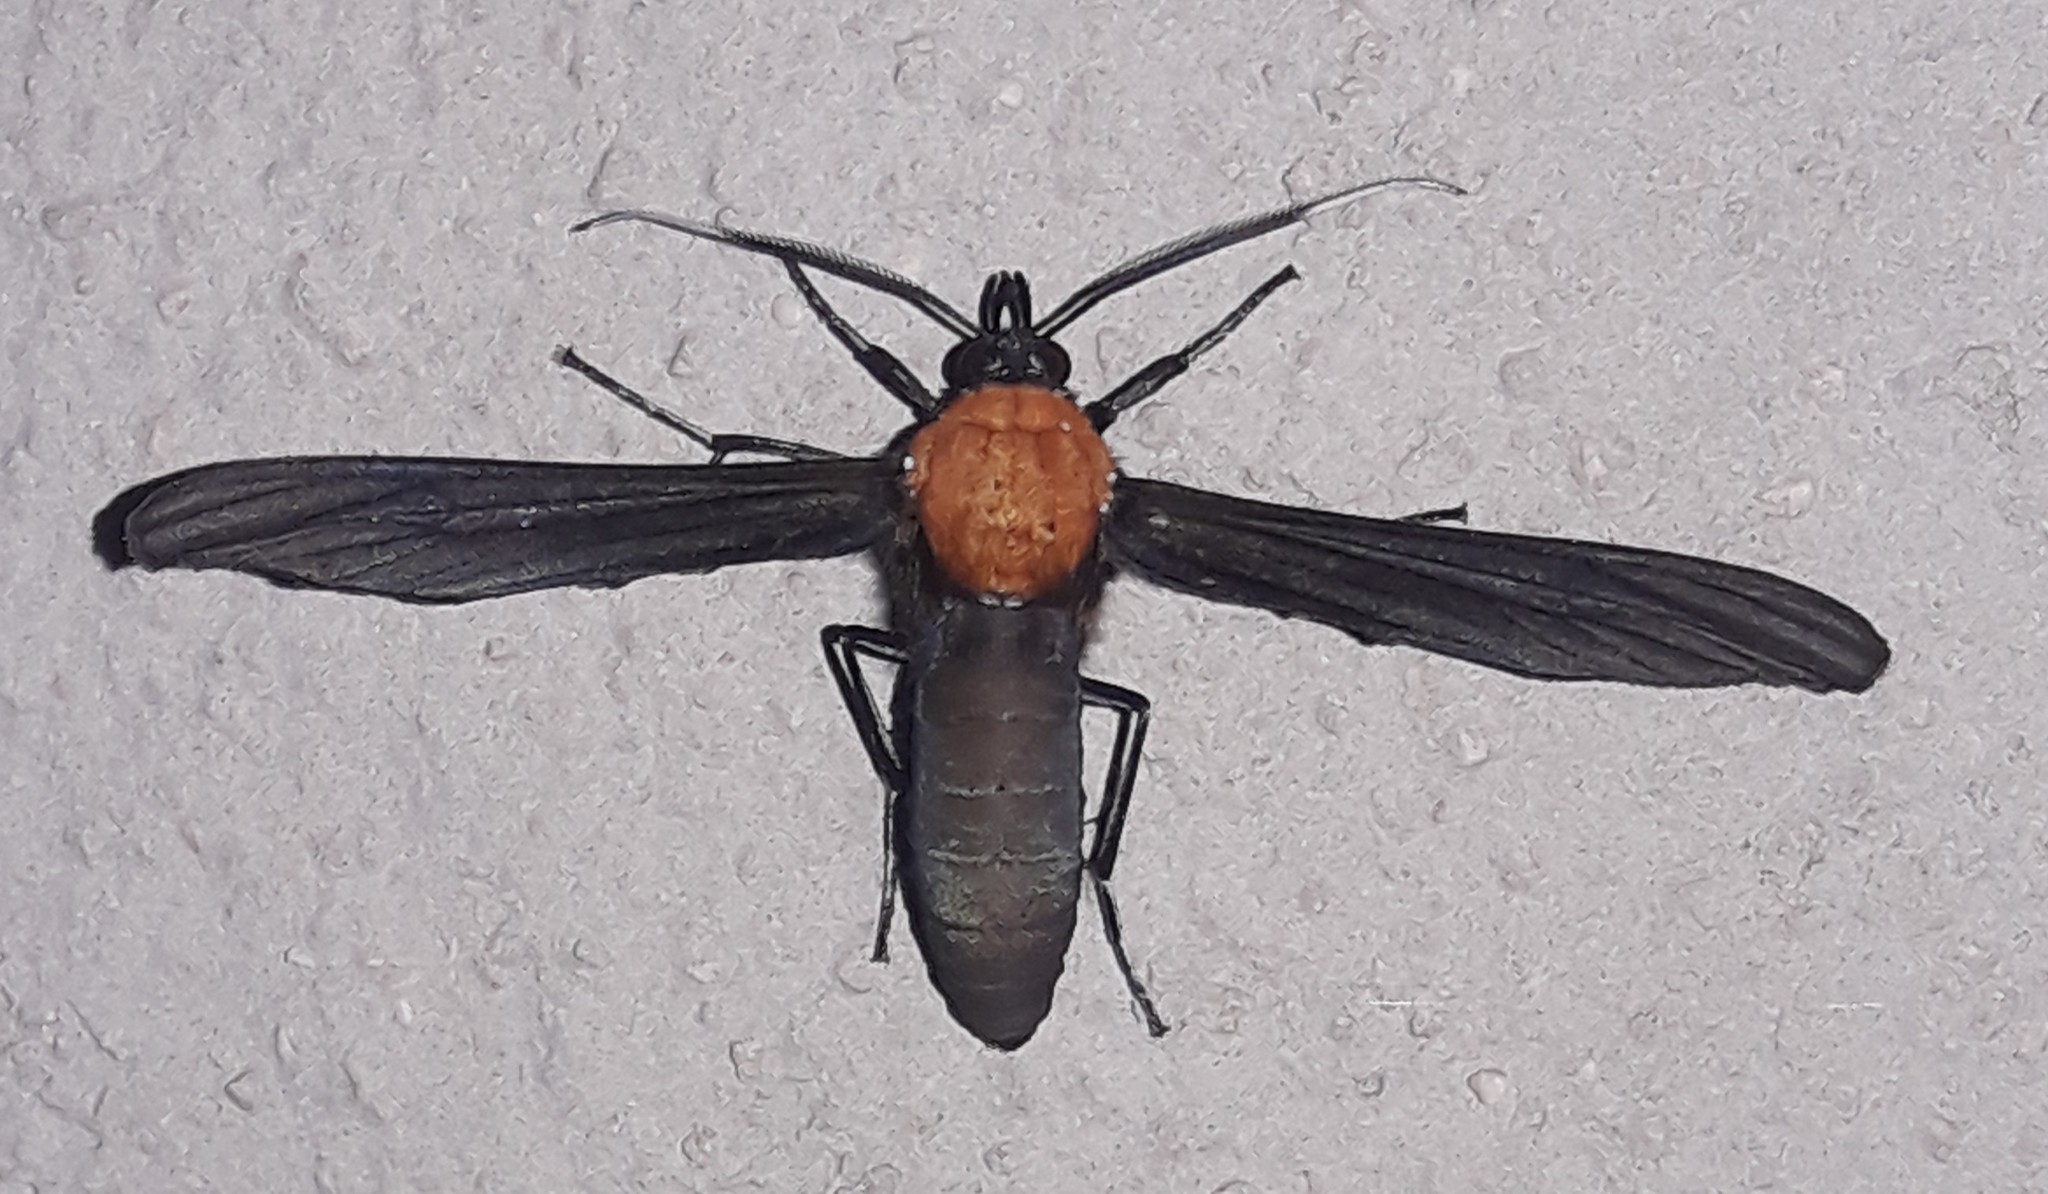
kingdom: Animalia
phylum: Arthropoda
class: Insecta
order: Lepidoptera
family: Erebidae
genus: Scena
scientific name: Scena potentia
